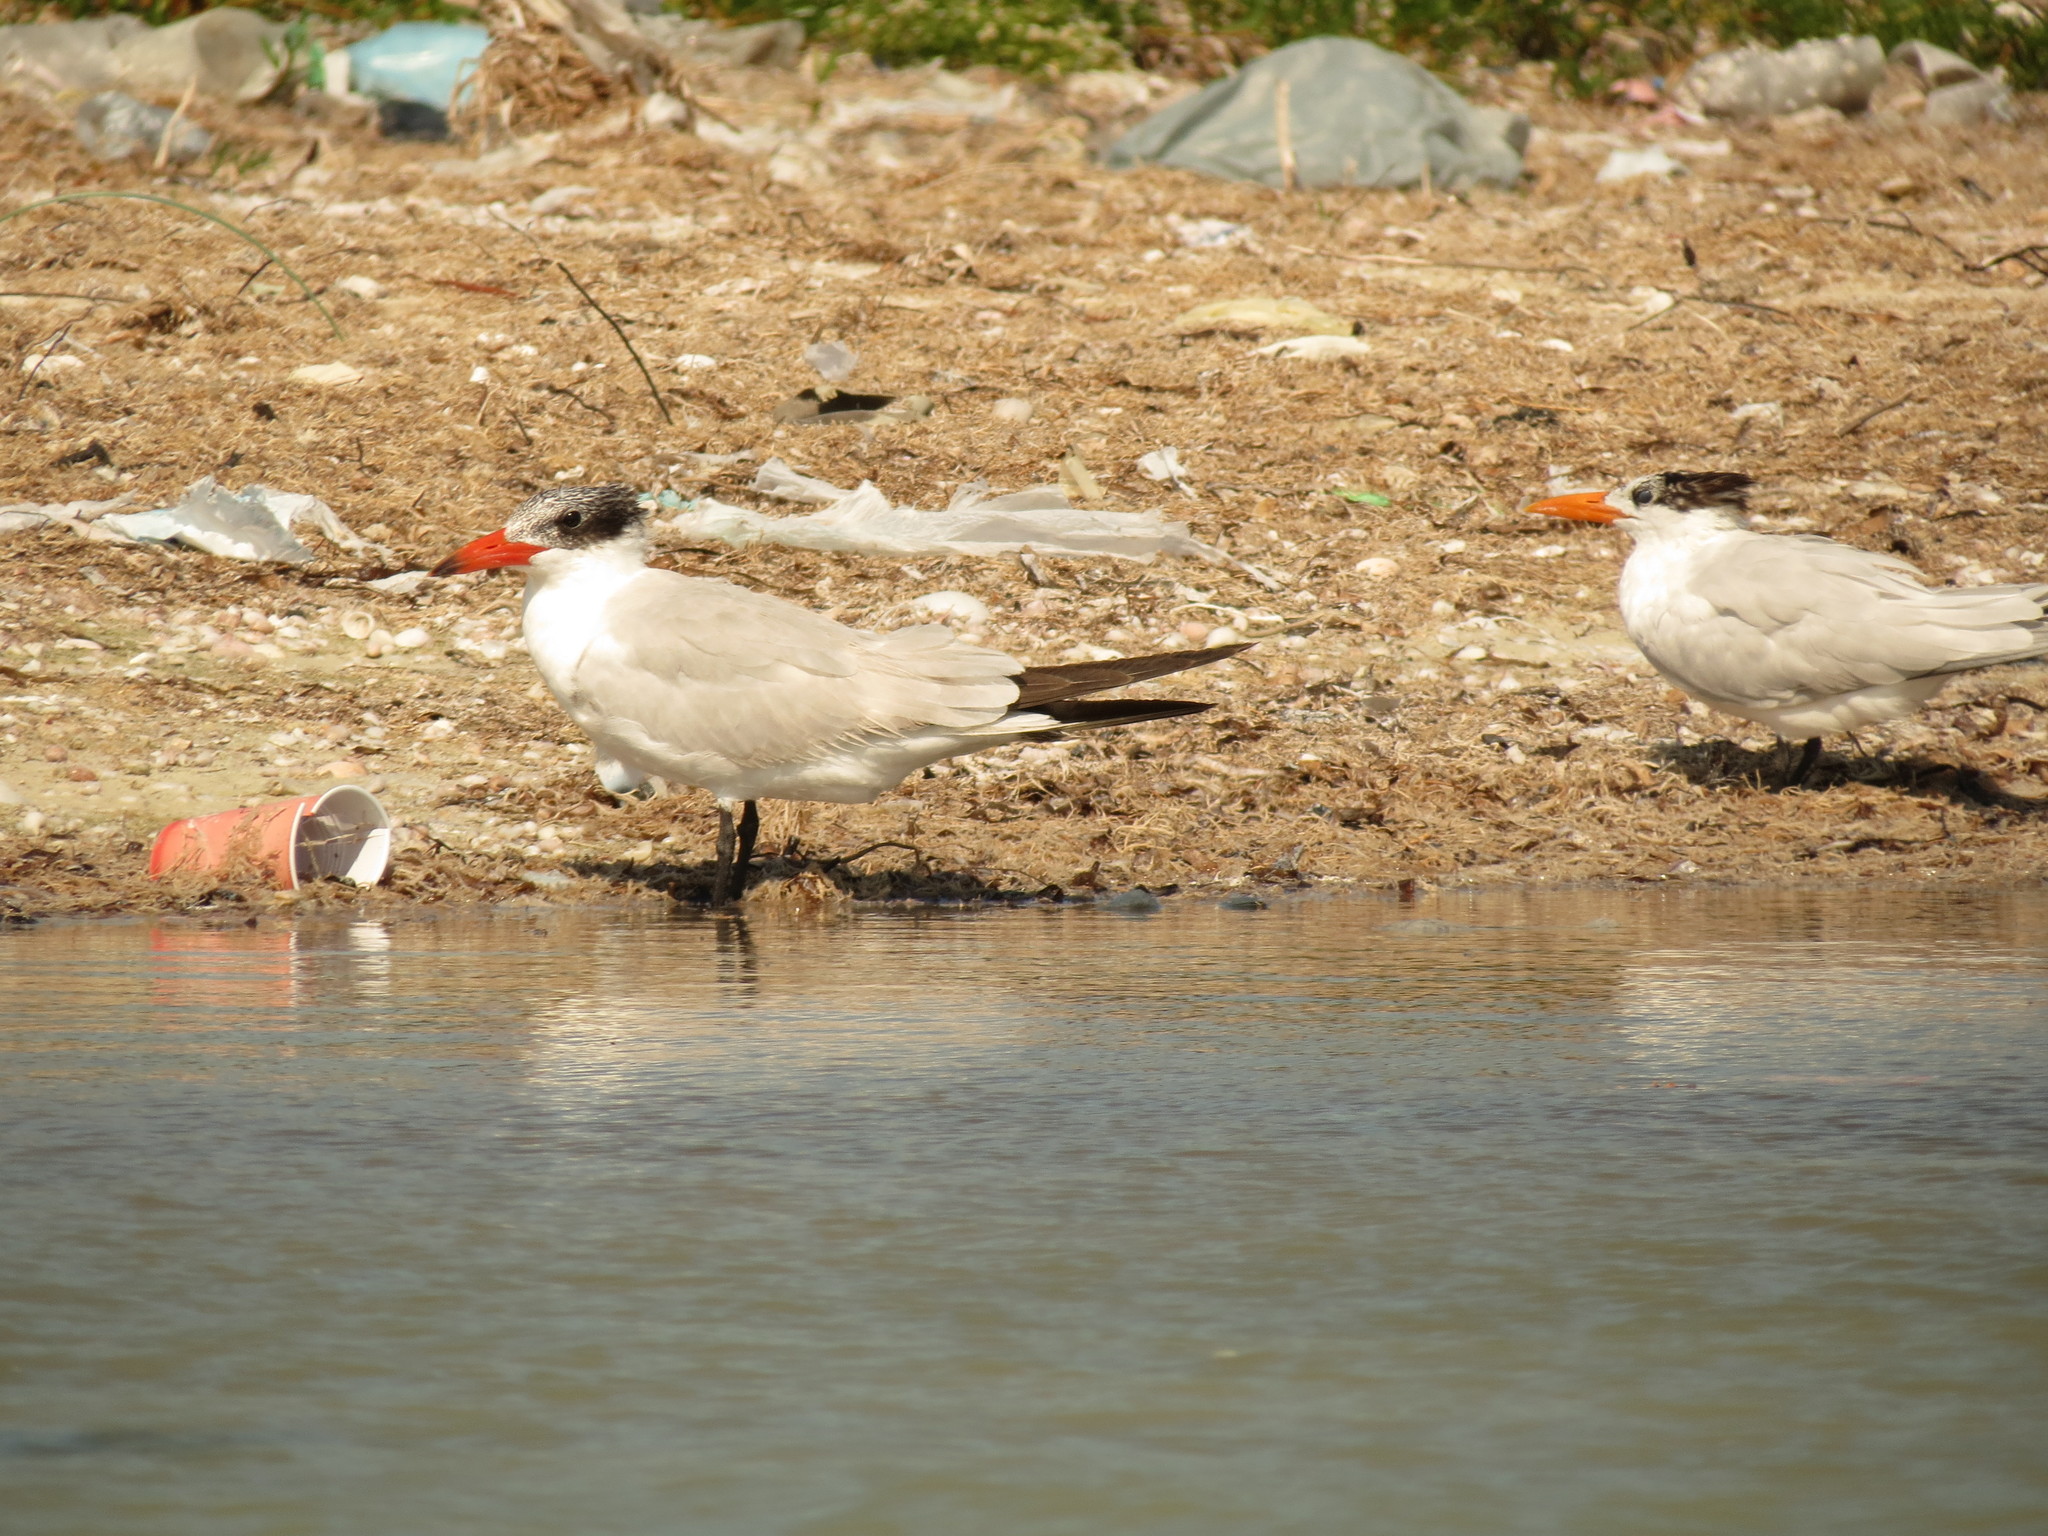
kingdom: Animalia
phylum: Chordata
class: Aves
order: Charadriiformes
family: Laridae
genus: Hydroprogne
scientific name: Hydroprogne caspia
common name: Caspian tern
